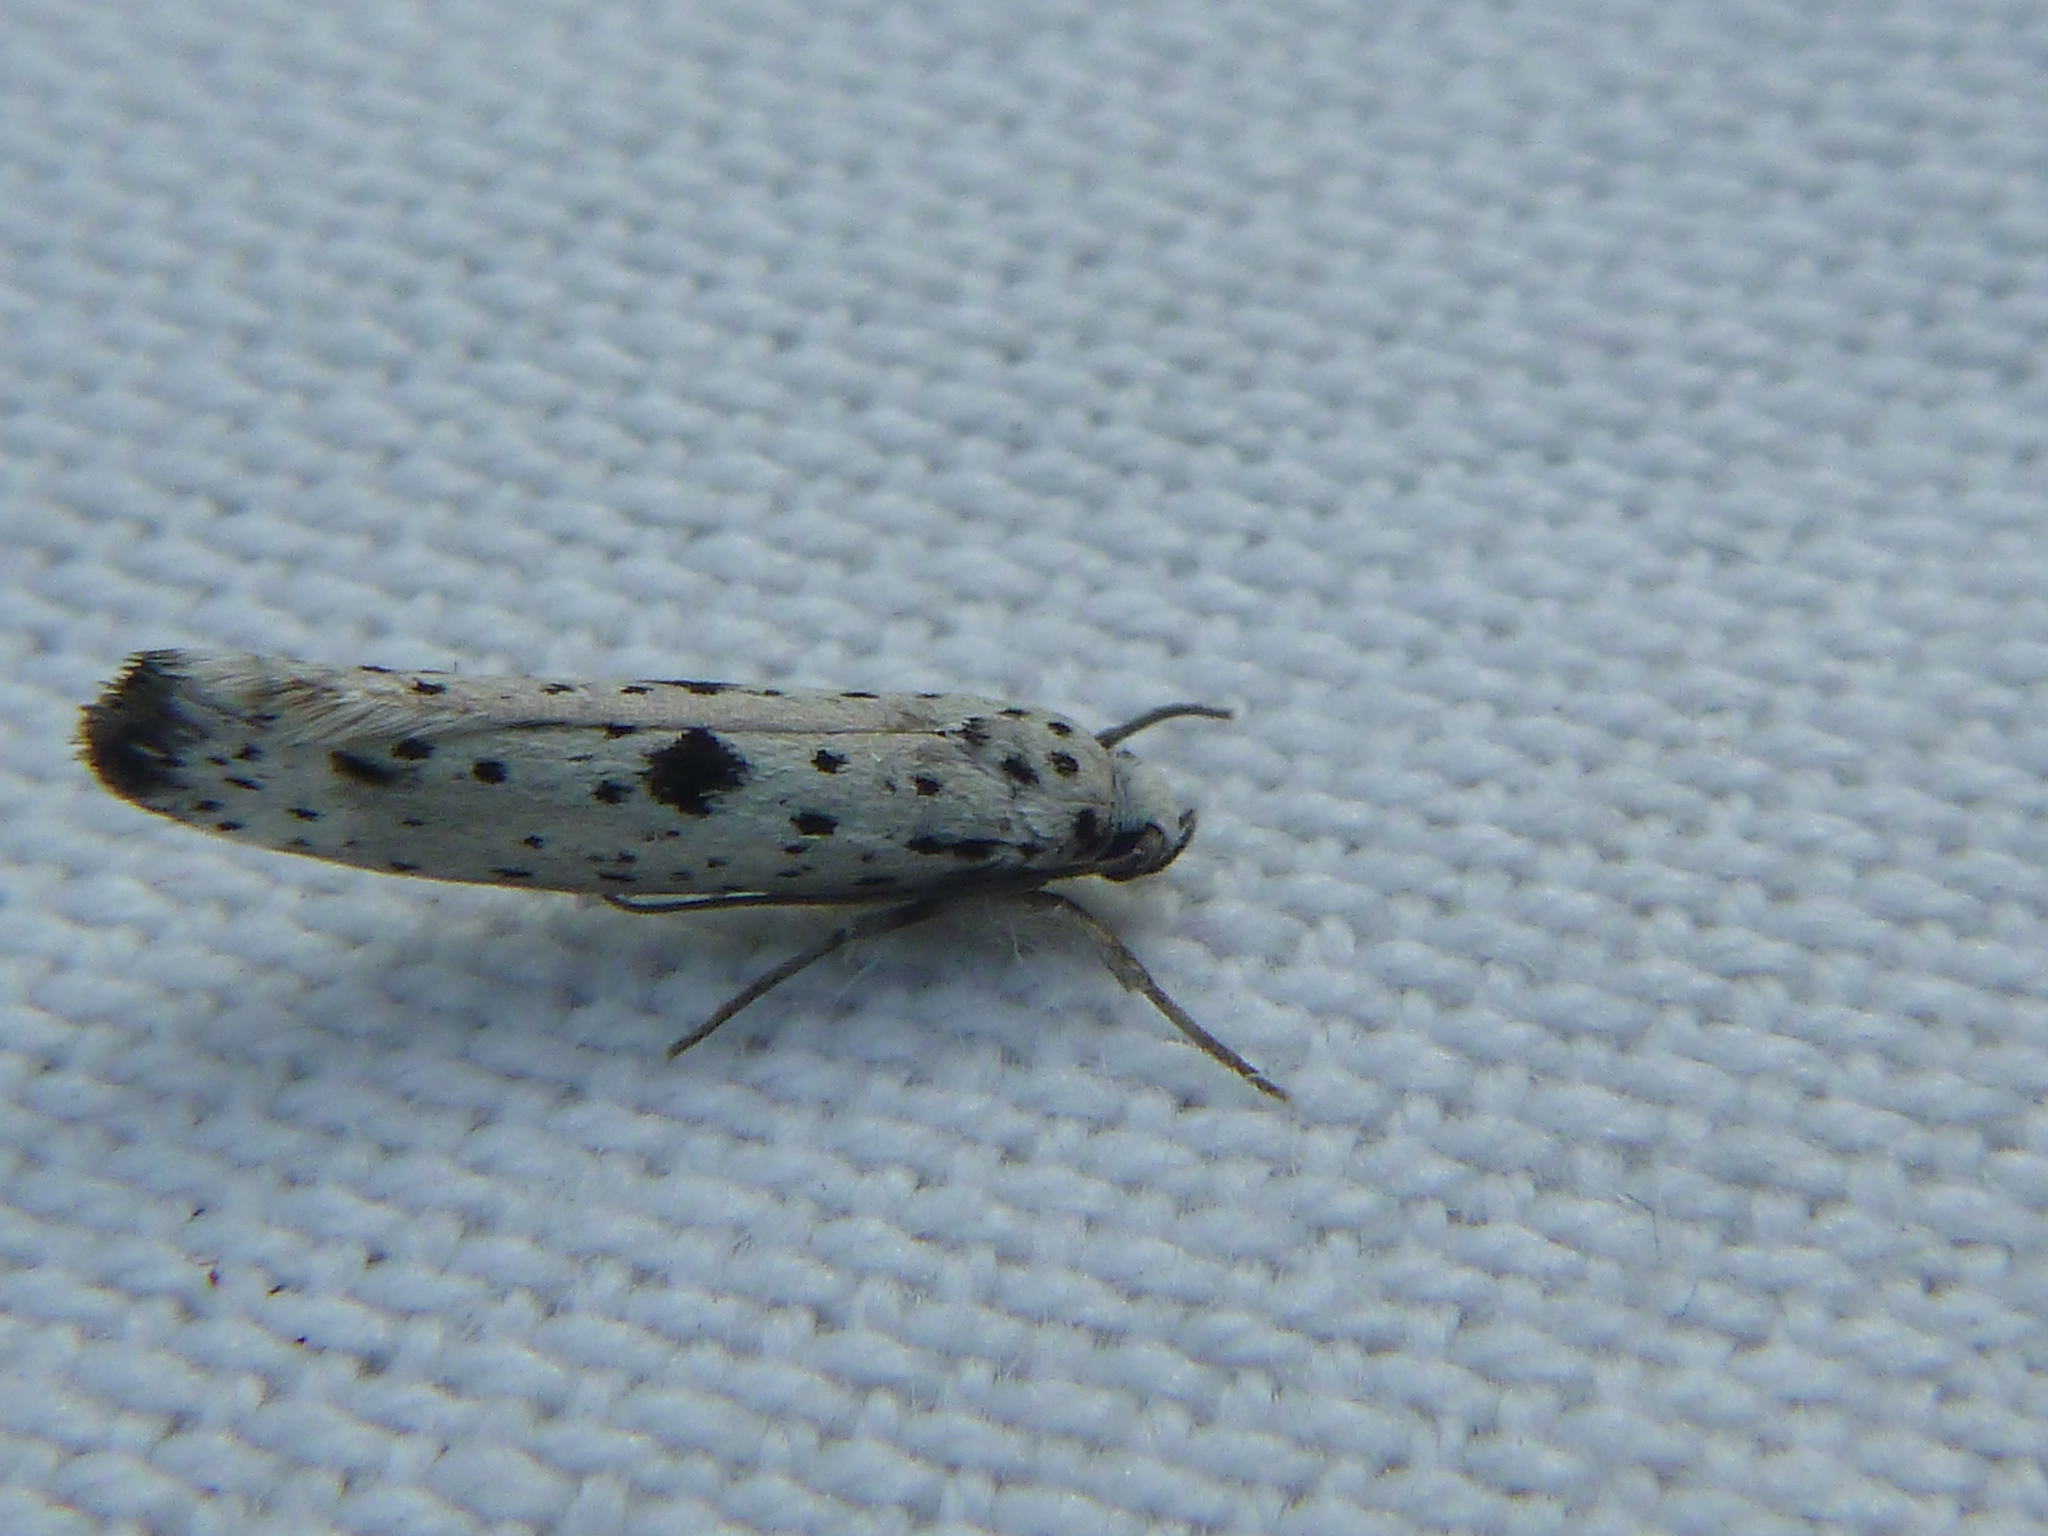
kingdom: Animalia
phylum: Arthropoda
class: Insecta
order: Lepidoptera
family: Yponomeutidae
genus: Yponomeuta
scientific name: Yponomeuta plumbella
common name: Black-tipped ermine
